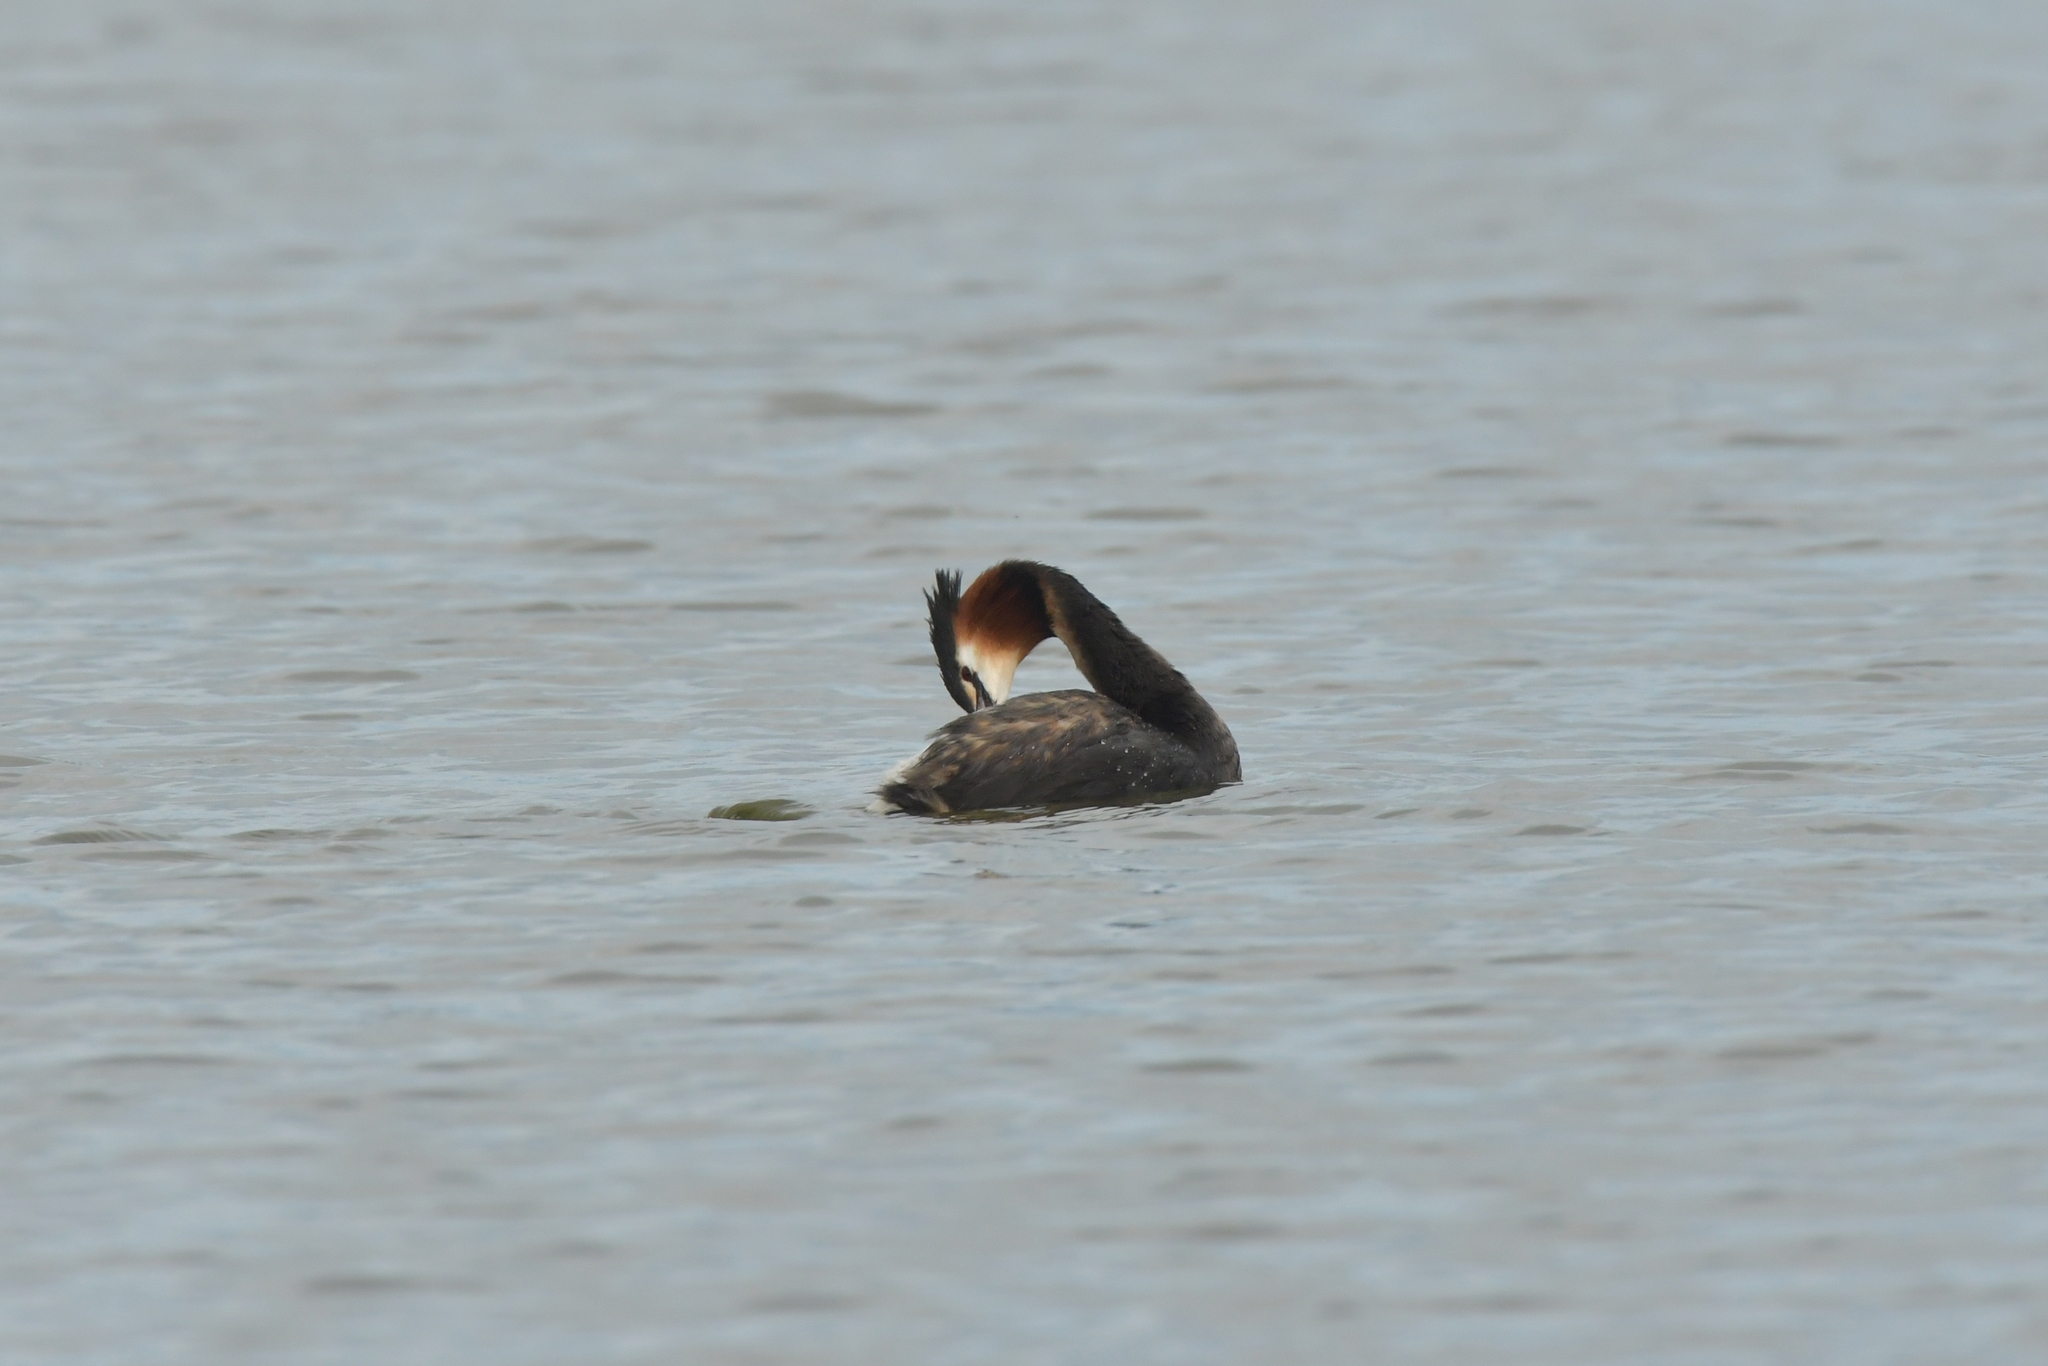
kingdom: Animalia
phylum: Chordata
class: Aves
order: Podicipediformes
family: Podicipedidae
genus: Podiceps
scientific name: Podiceps cristatus
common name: Great crested grebe
